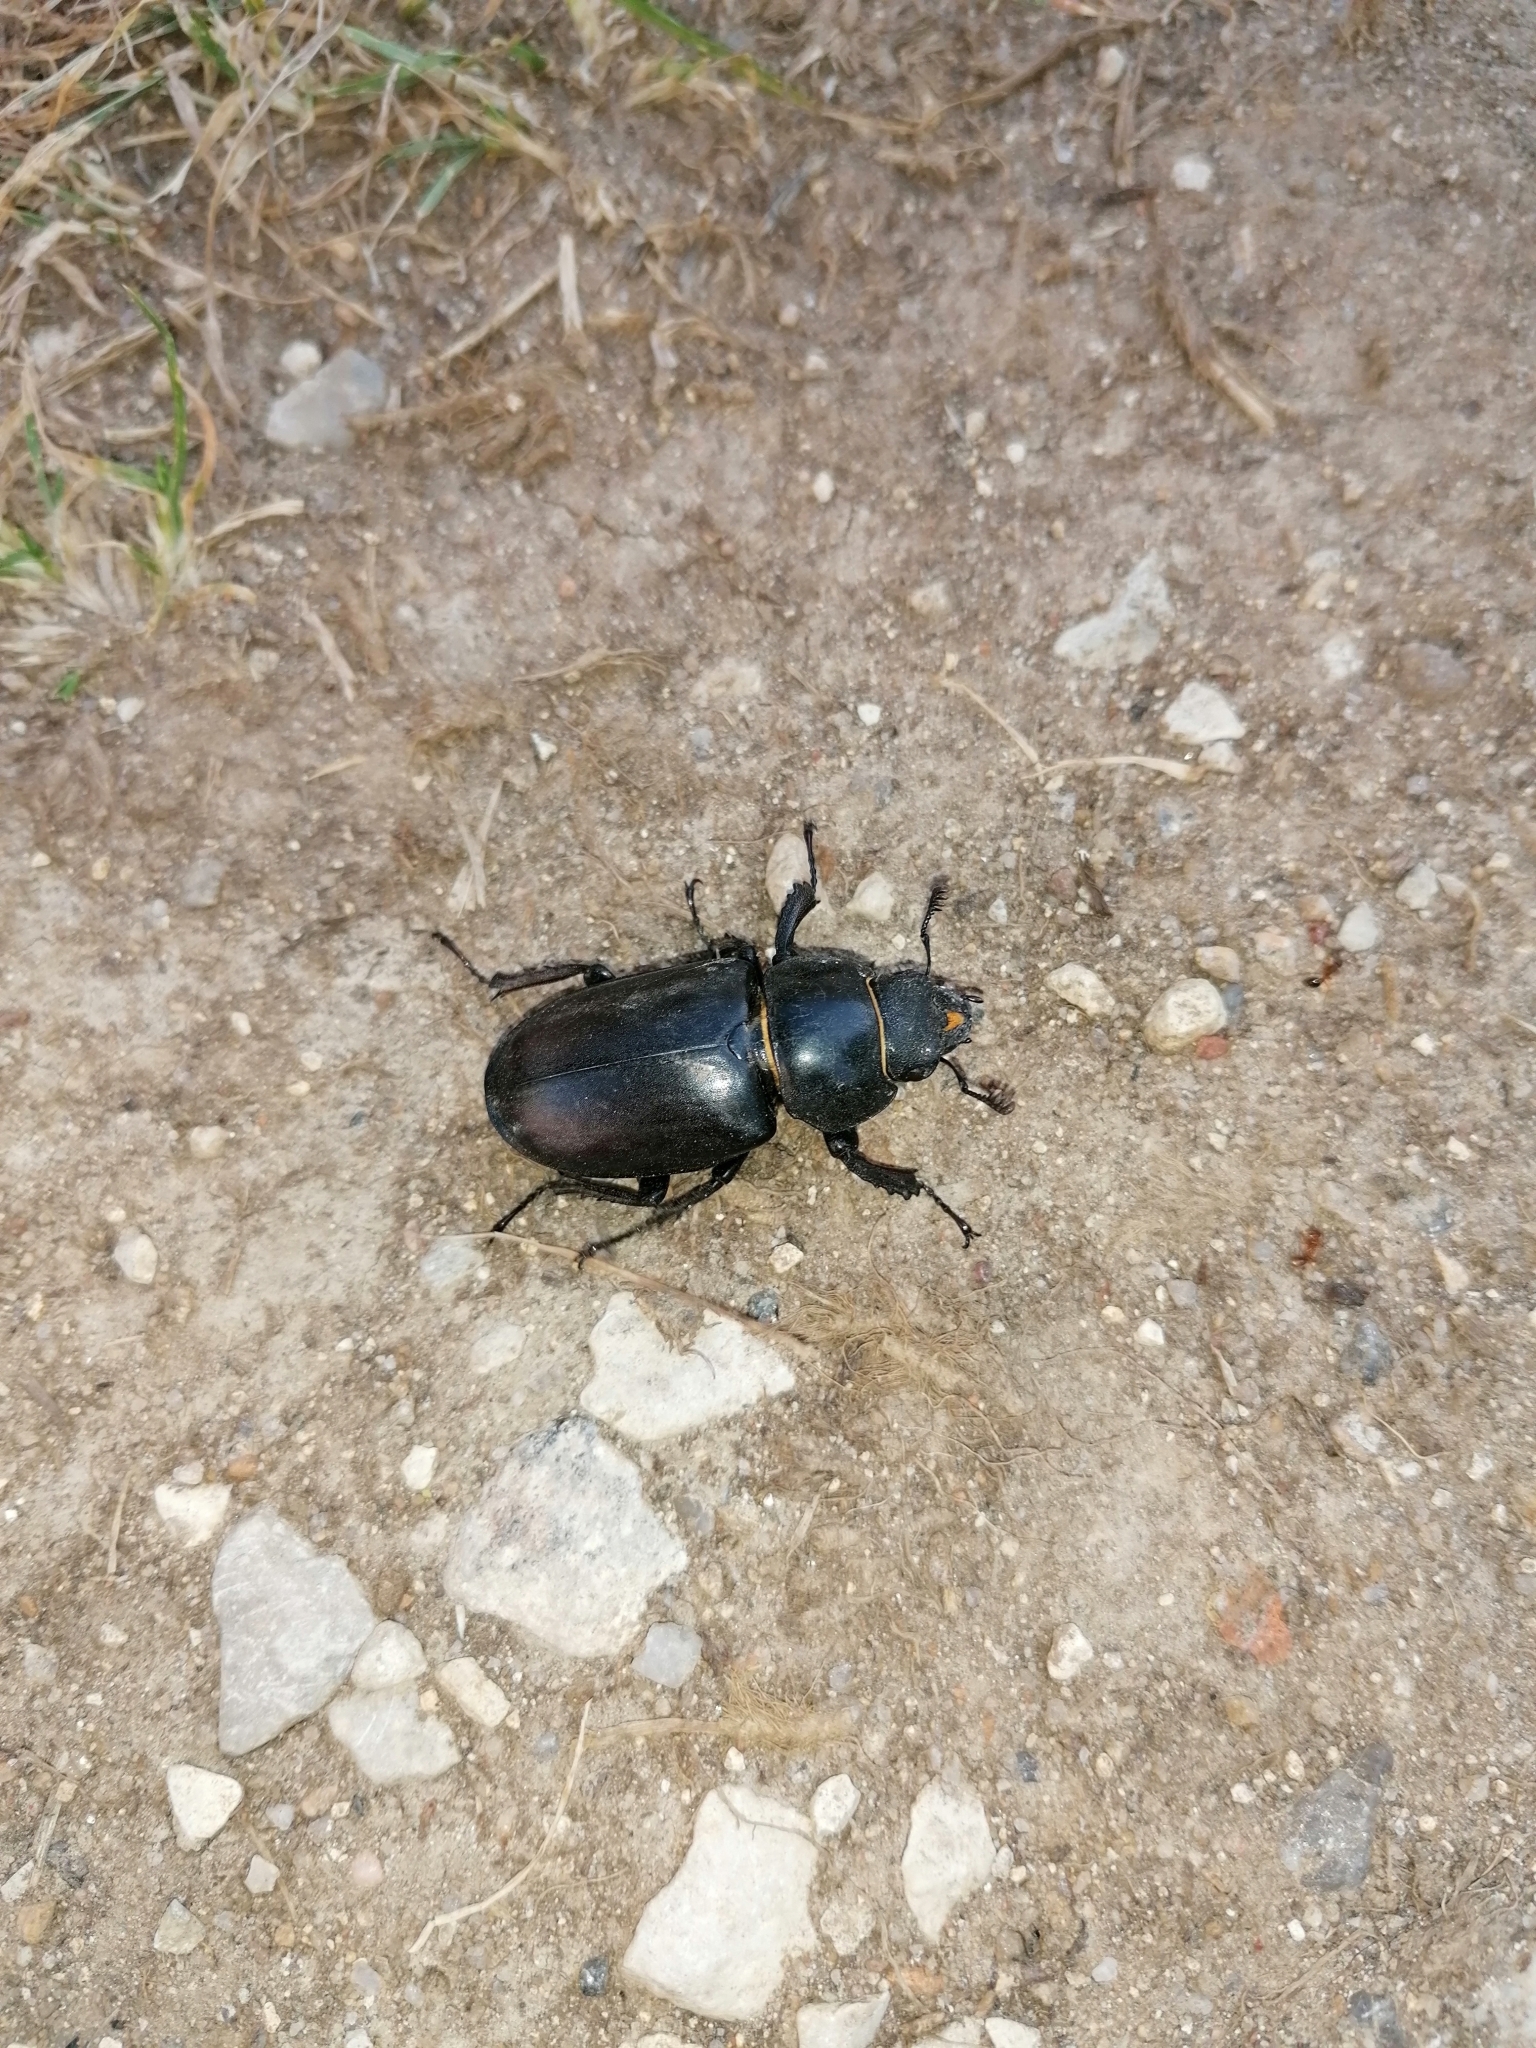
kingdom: Animalia
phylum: Arthropoda
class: Insecta
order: Coleoptera
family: Lucanidae
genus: Lucanus
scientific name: Lucanus cervus
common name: Stag beetle
